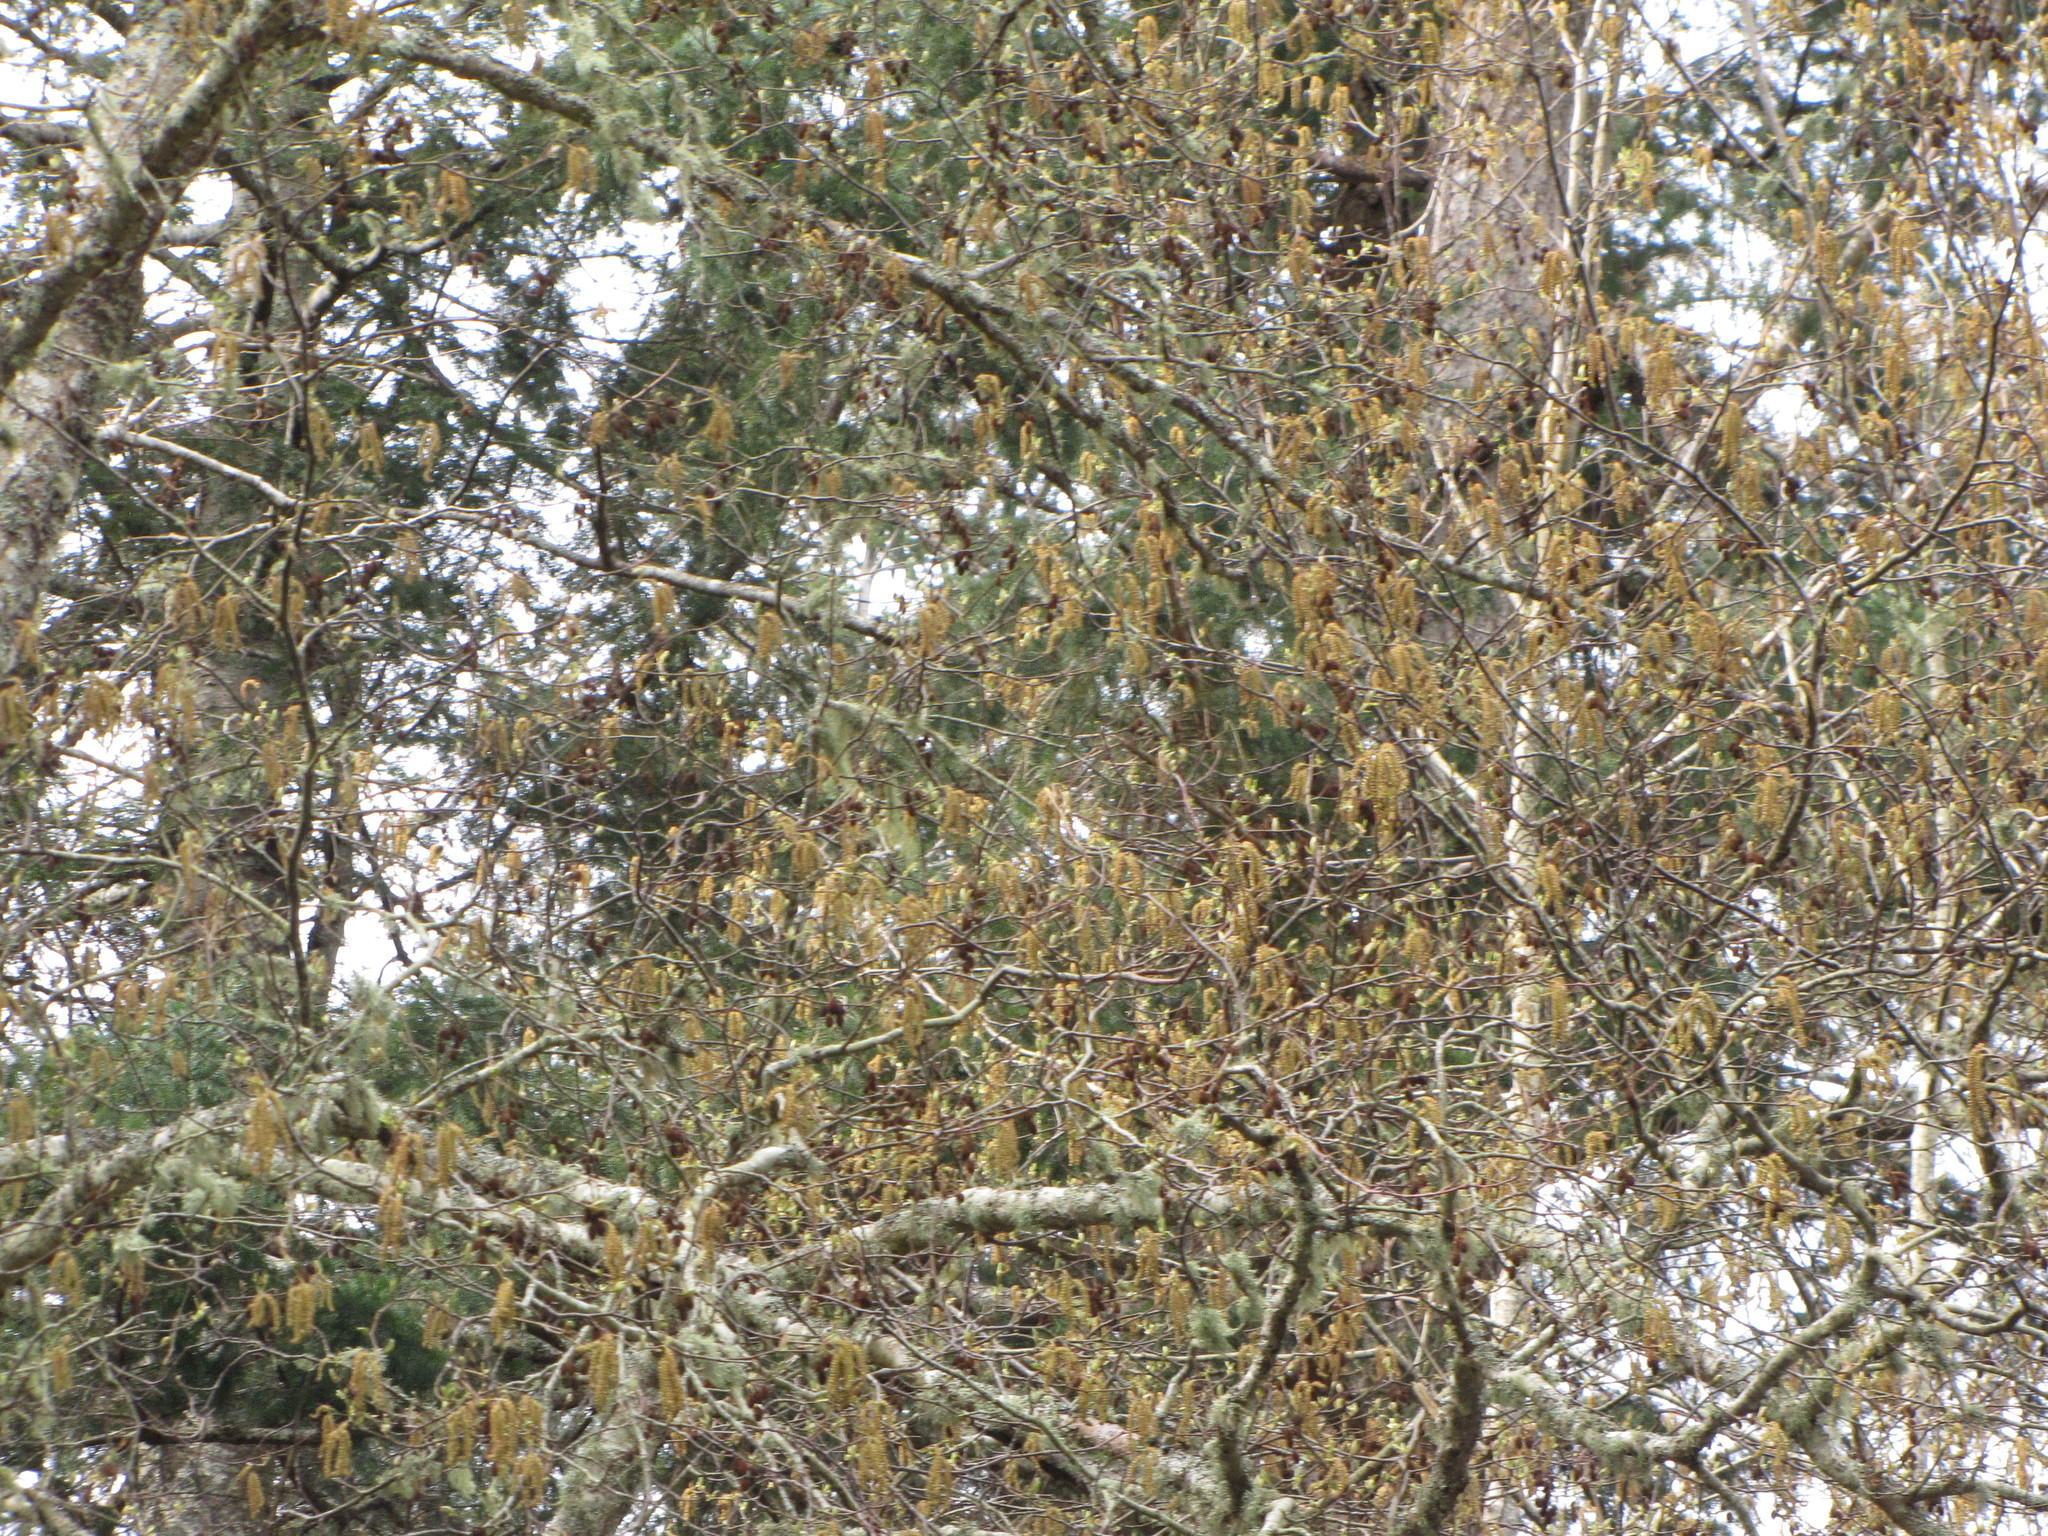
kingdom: Plantae
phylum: Tracheophyta
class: Magnoliopsida
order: Fagales
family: Betulaceae
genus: Alnus
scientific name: Alnus rubra
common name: Red alder
